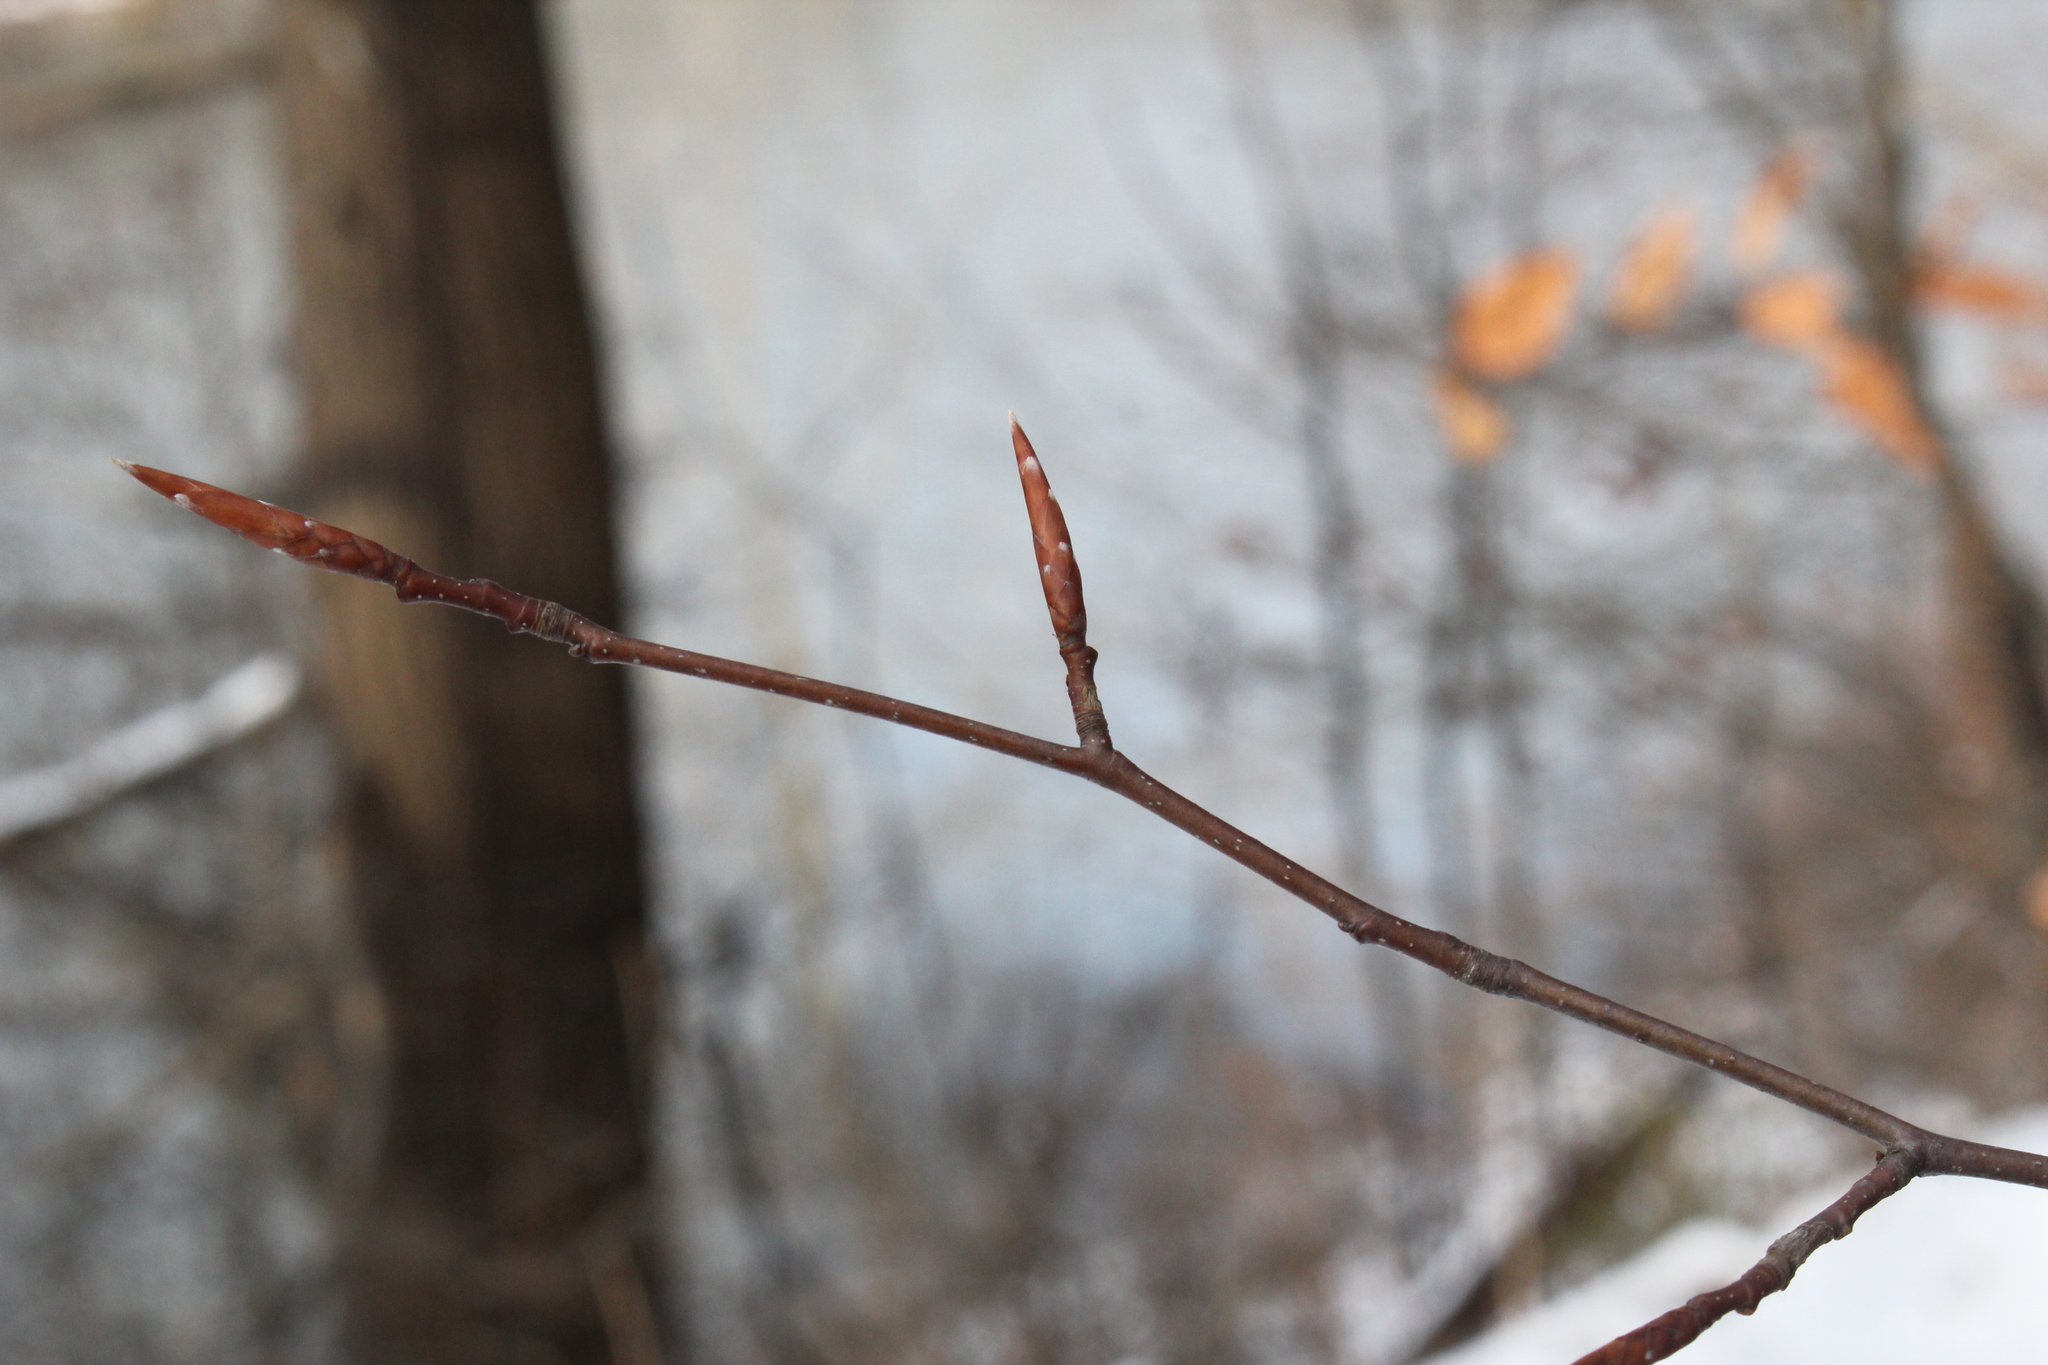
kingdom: Plantae
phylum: Tracheophyta
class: Magnoliopsida
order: Fagales
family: Fagaceae
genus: Fagus
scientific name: Fagus grandifolia
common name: American beech
